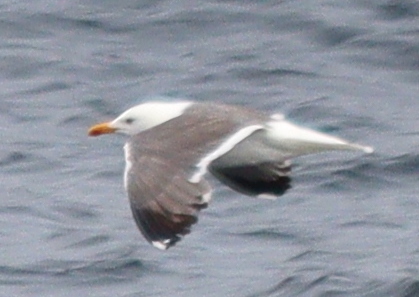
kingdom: Animalia
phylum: Chordata
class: Aves
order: Charadriiformes
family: Laridae
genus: Larus
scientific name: Larus fuscus
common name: Lesser black-backed gull
